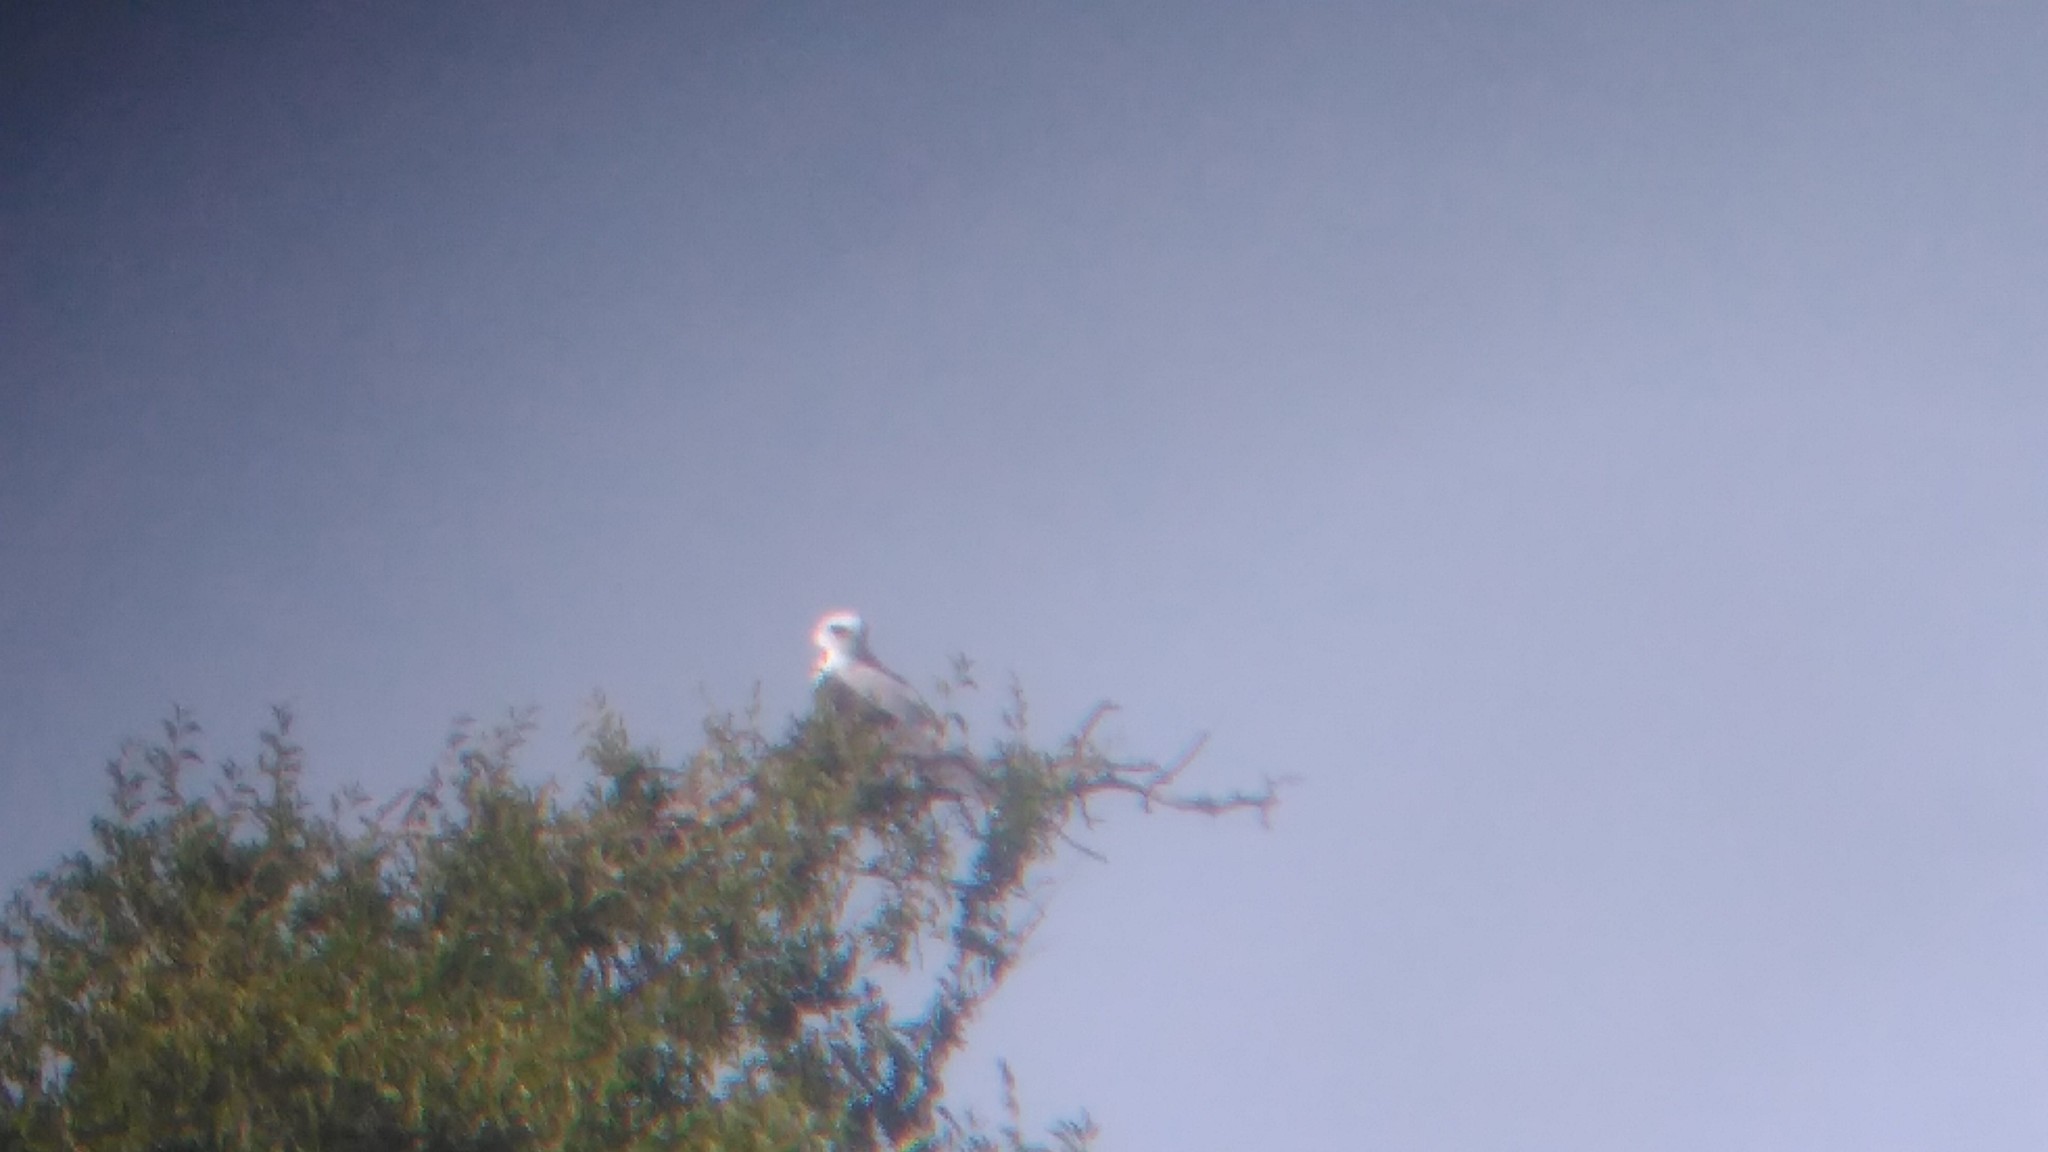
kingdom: Animalia
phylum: Chordata
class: Aves
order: Accipitriformes
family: Accipitridae
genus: Elanus
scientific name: Elanus leucurus
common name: White-tailed kite
